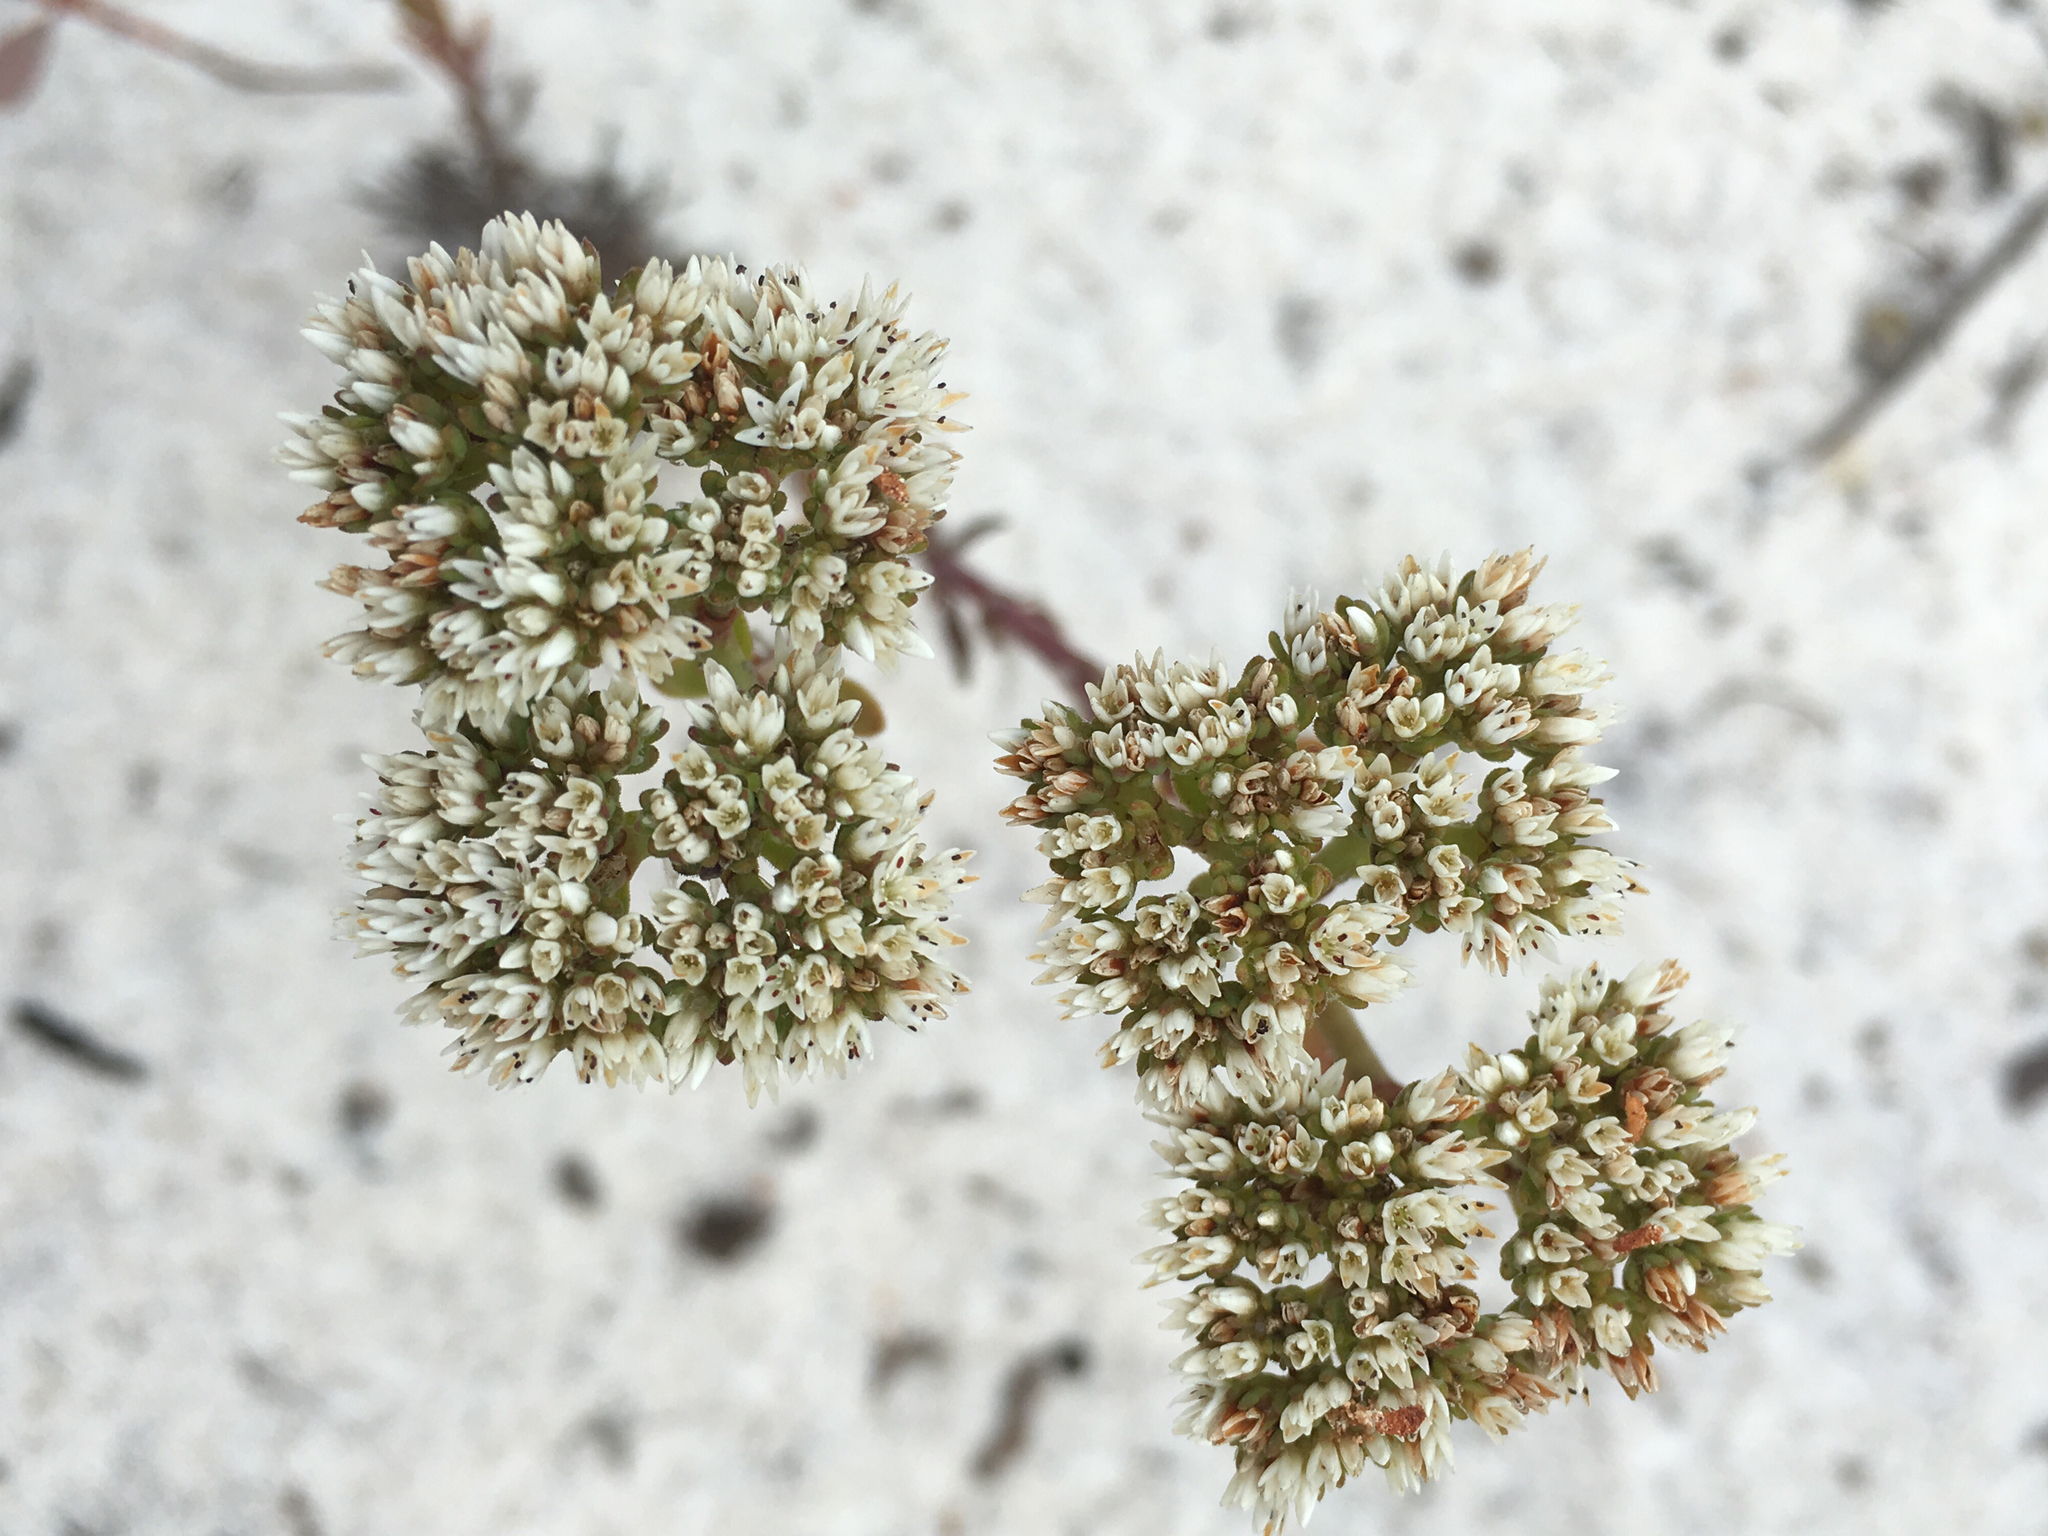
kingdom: Plantae
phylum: Tracheophyta
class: Magnoliopsida
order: Caryophyllales
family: Caryophyllaceae
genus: Paronychia
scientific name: Paronychia erecta
